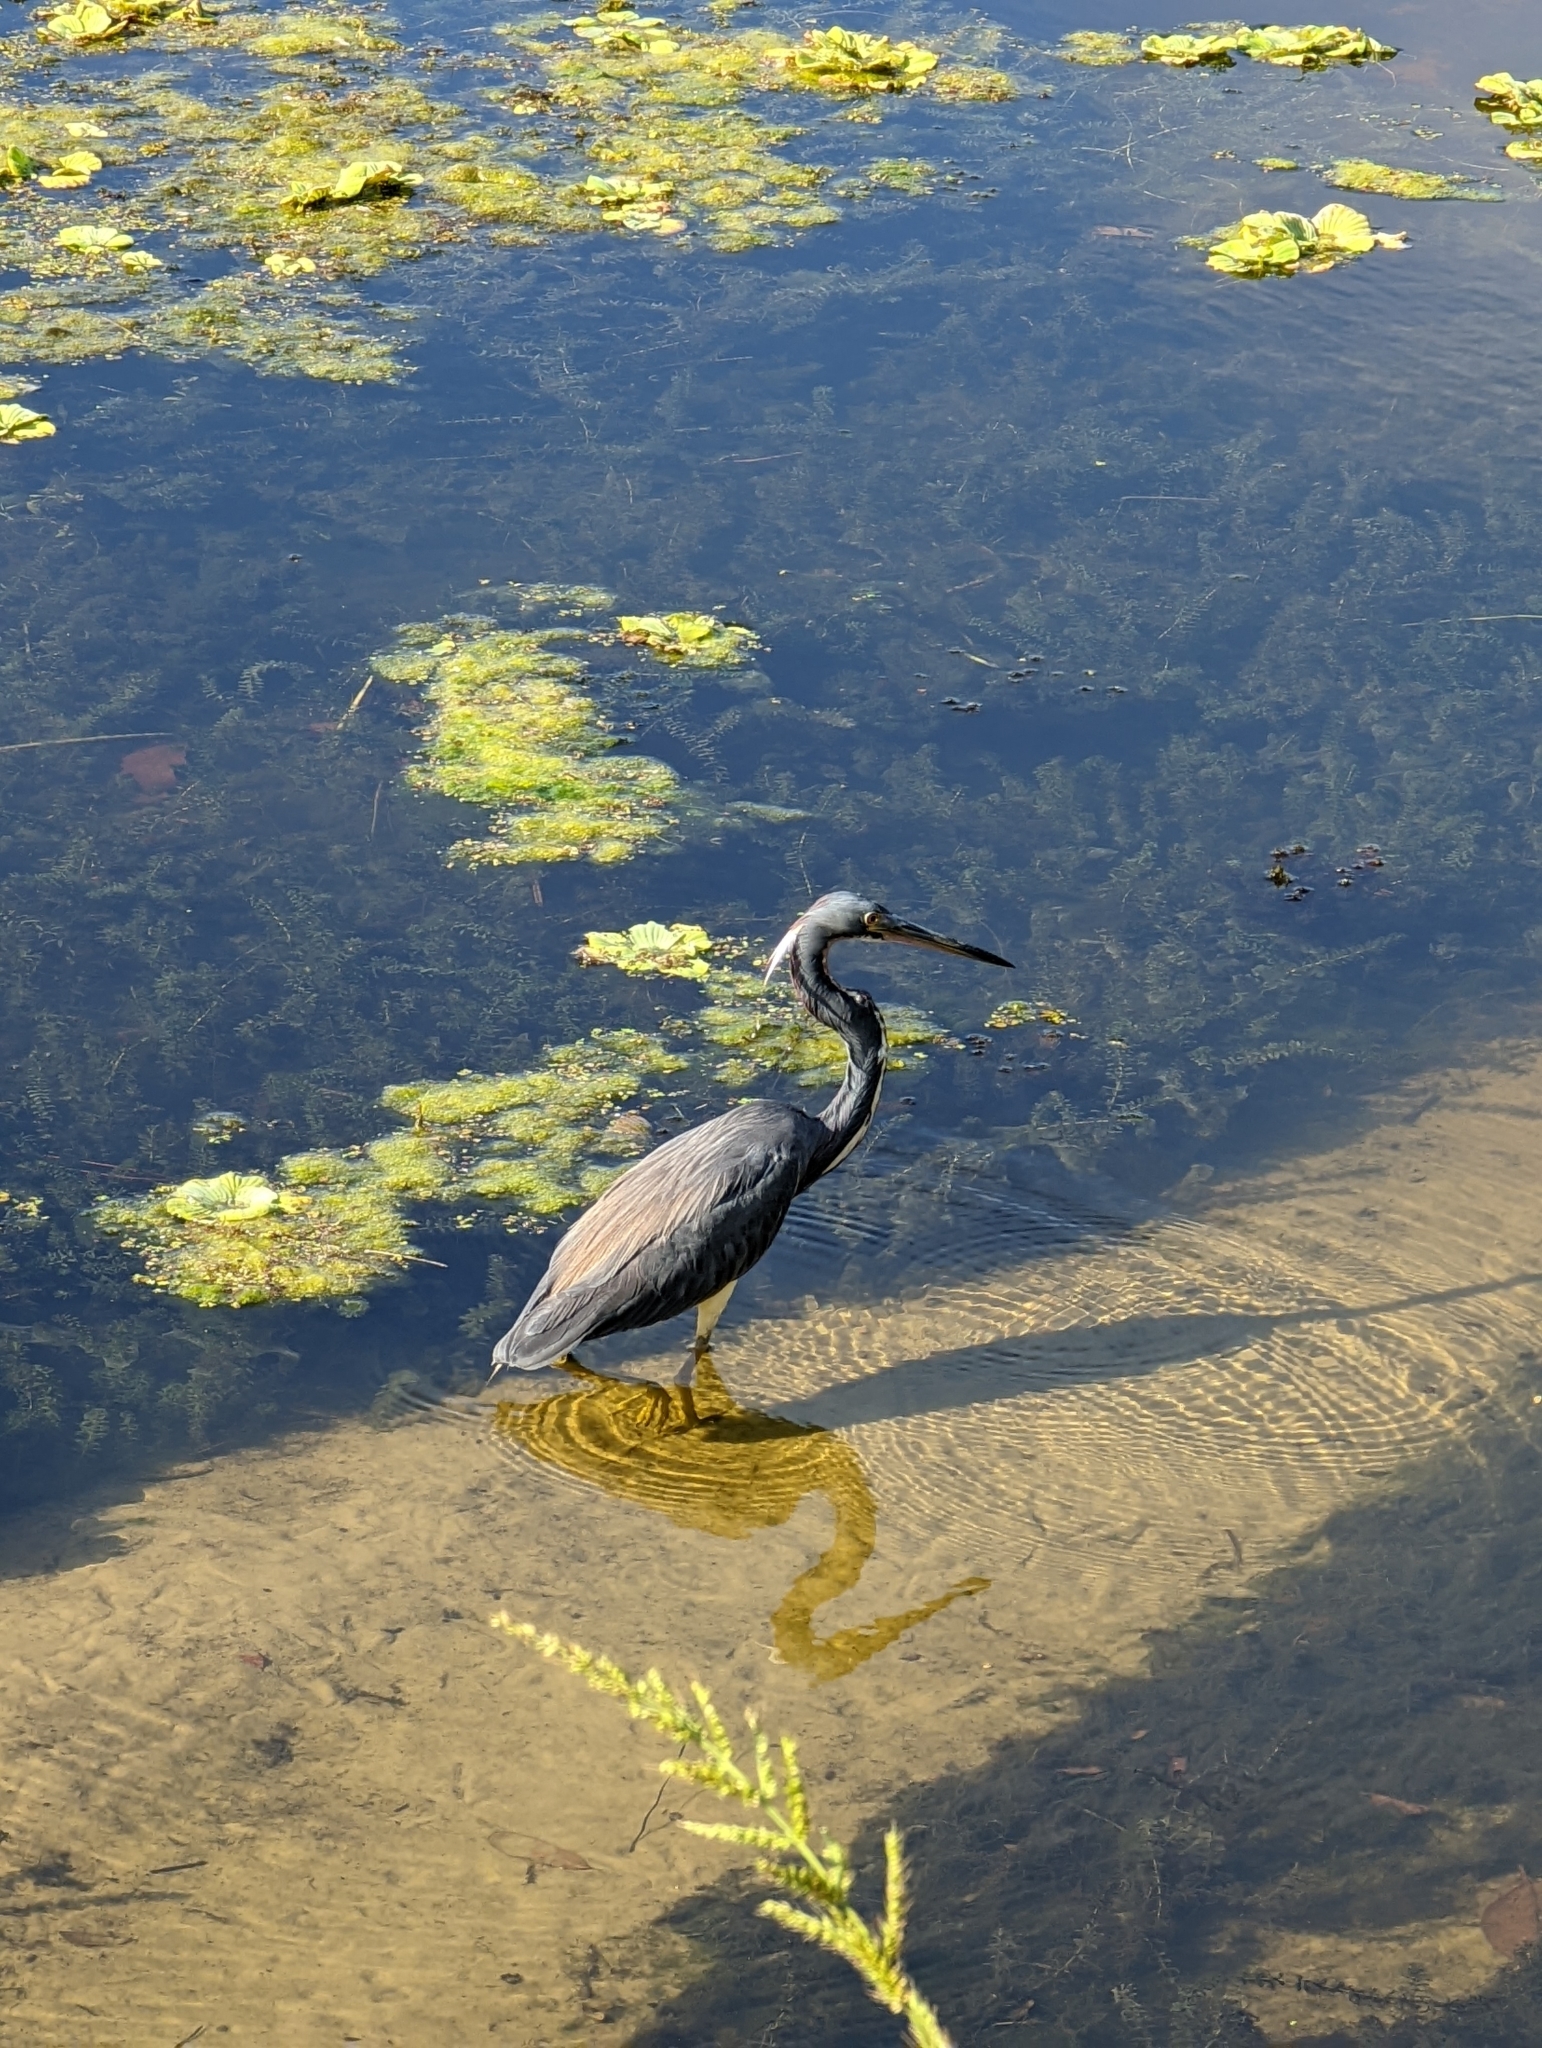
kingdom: Animalia
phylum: Chordata
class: Aves
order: Pelecaniformes
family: Ardeidae
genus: Egretta
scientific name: Egretta tricolor
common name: Tricolored heron
